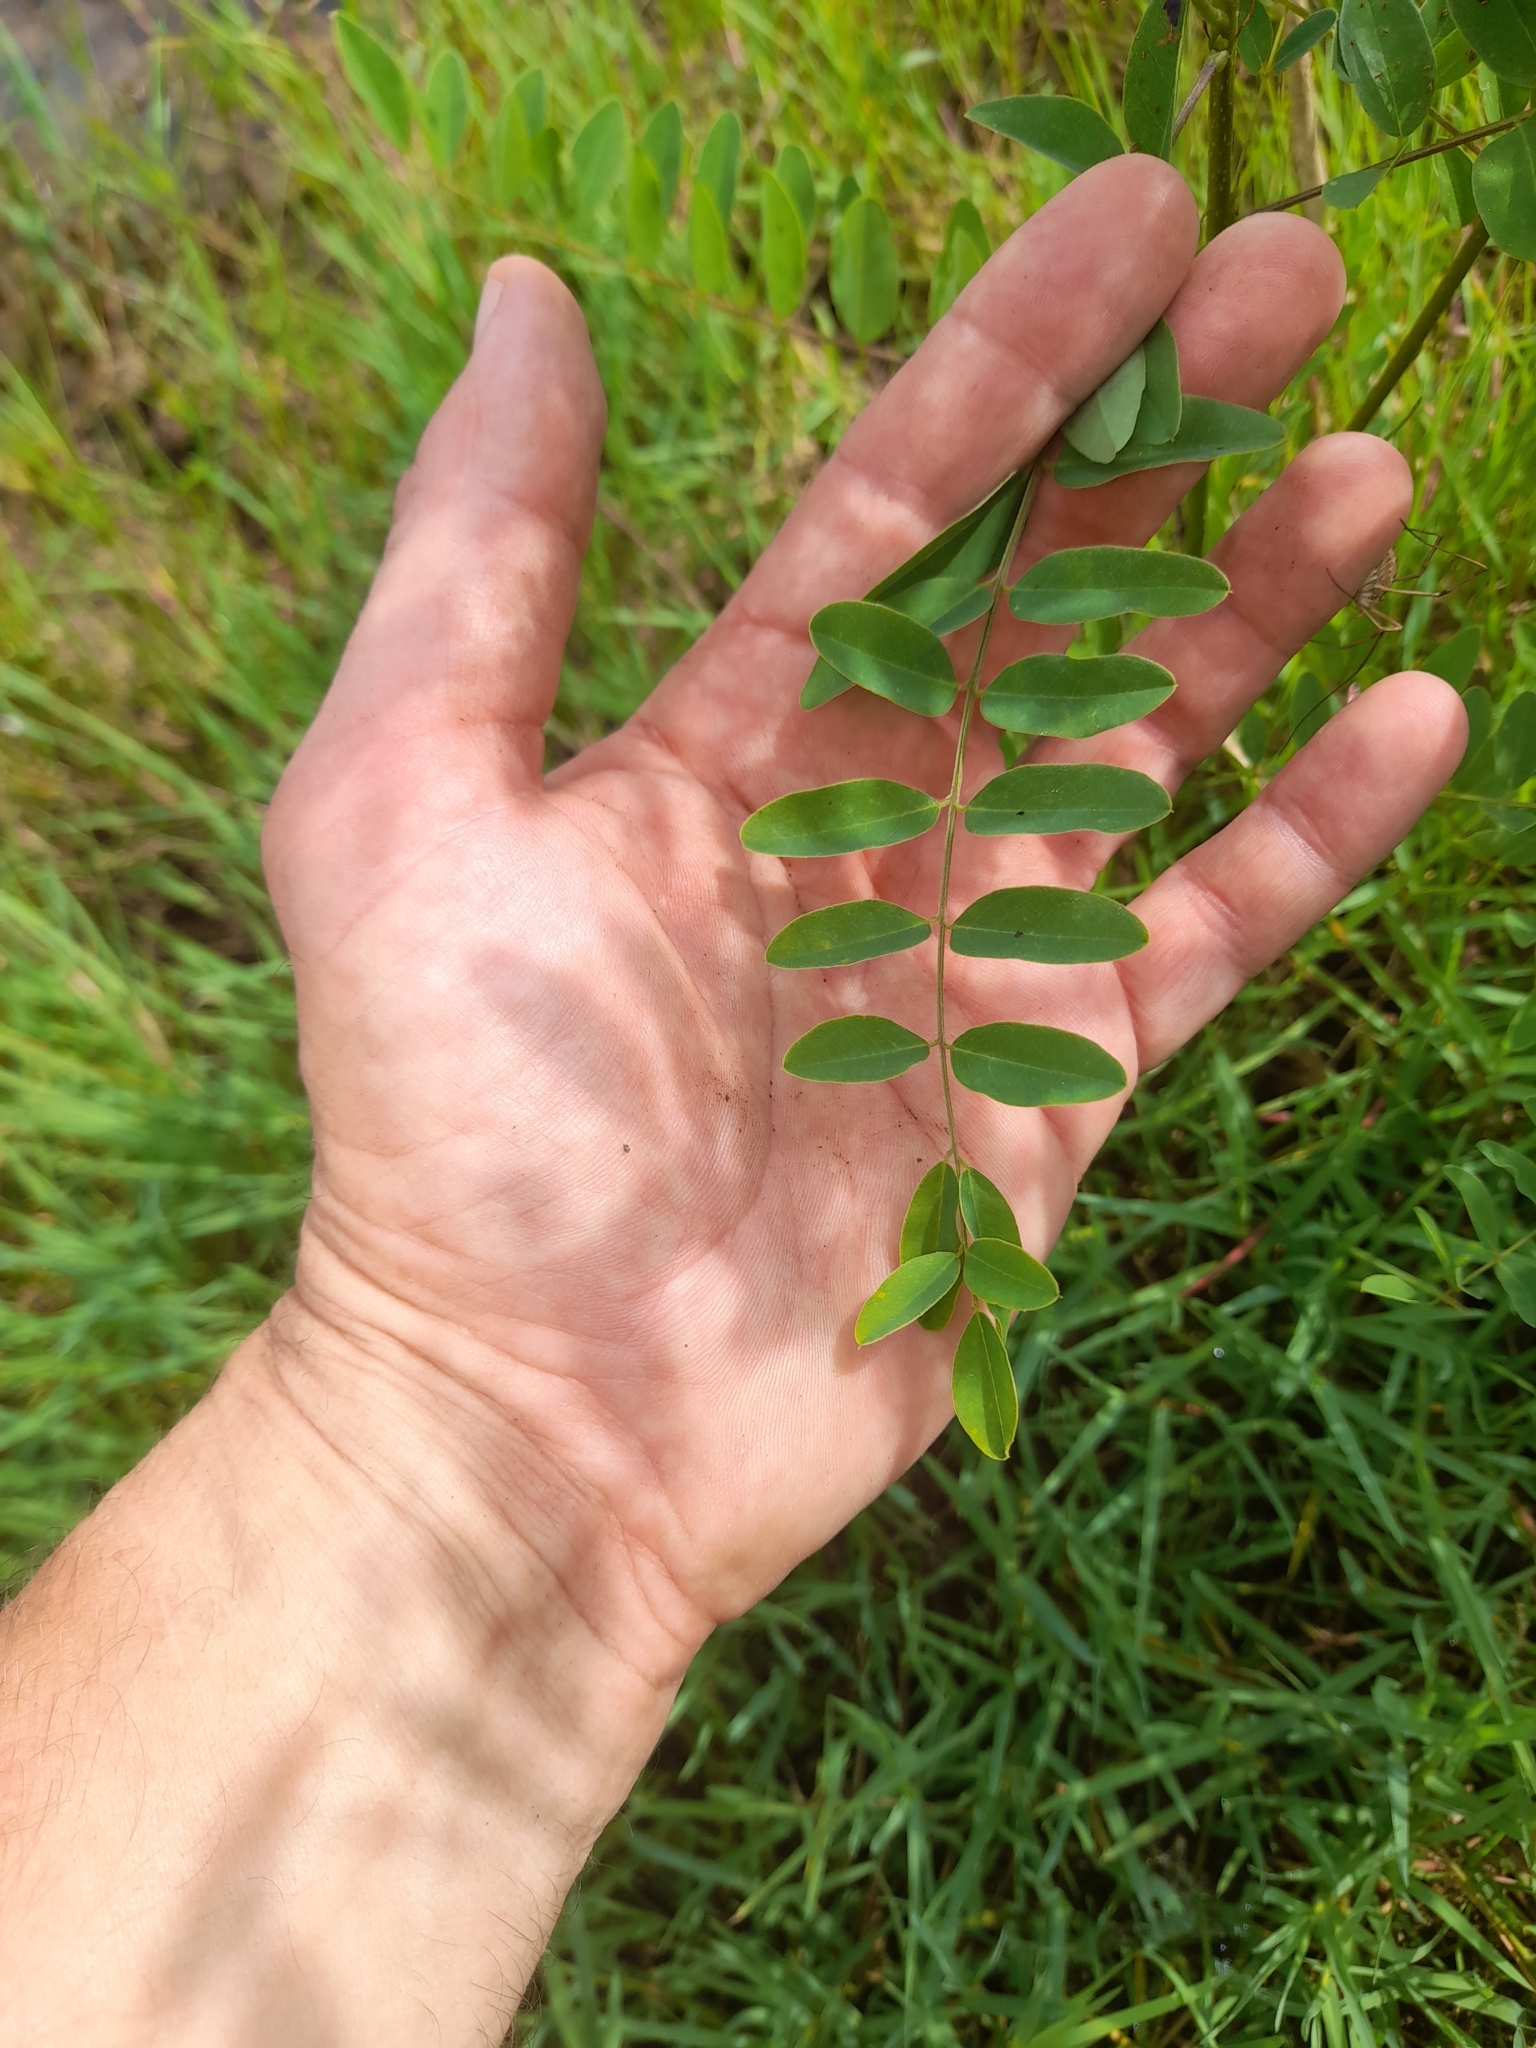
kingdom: Plantae
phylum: Tracheophyta
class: Magnoliopsida
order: Fabales
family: Fabaceae
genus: Amorpha
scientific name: Amorpha fruticosa
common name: False indigo
